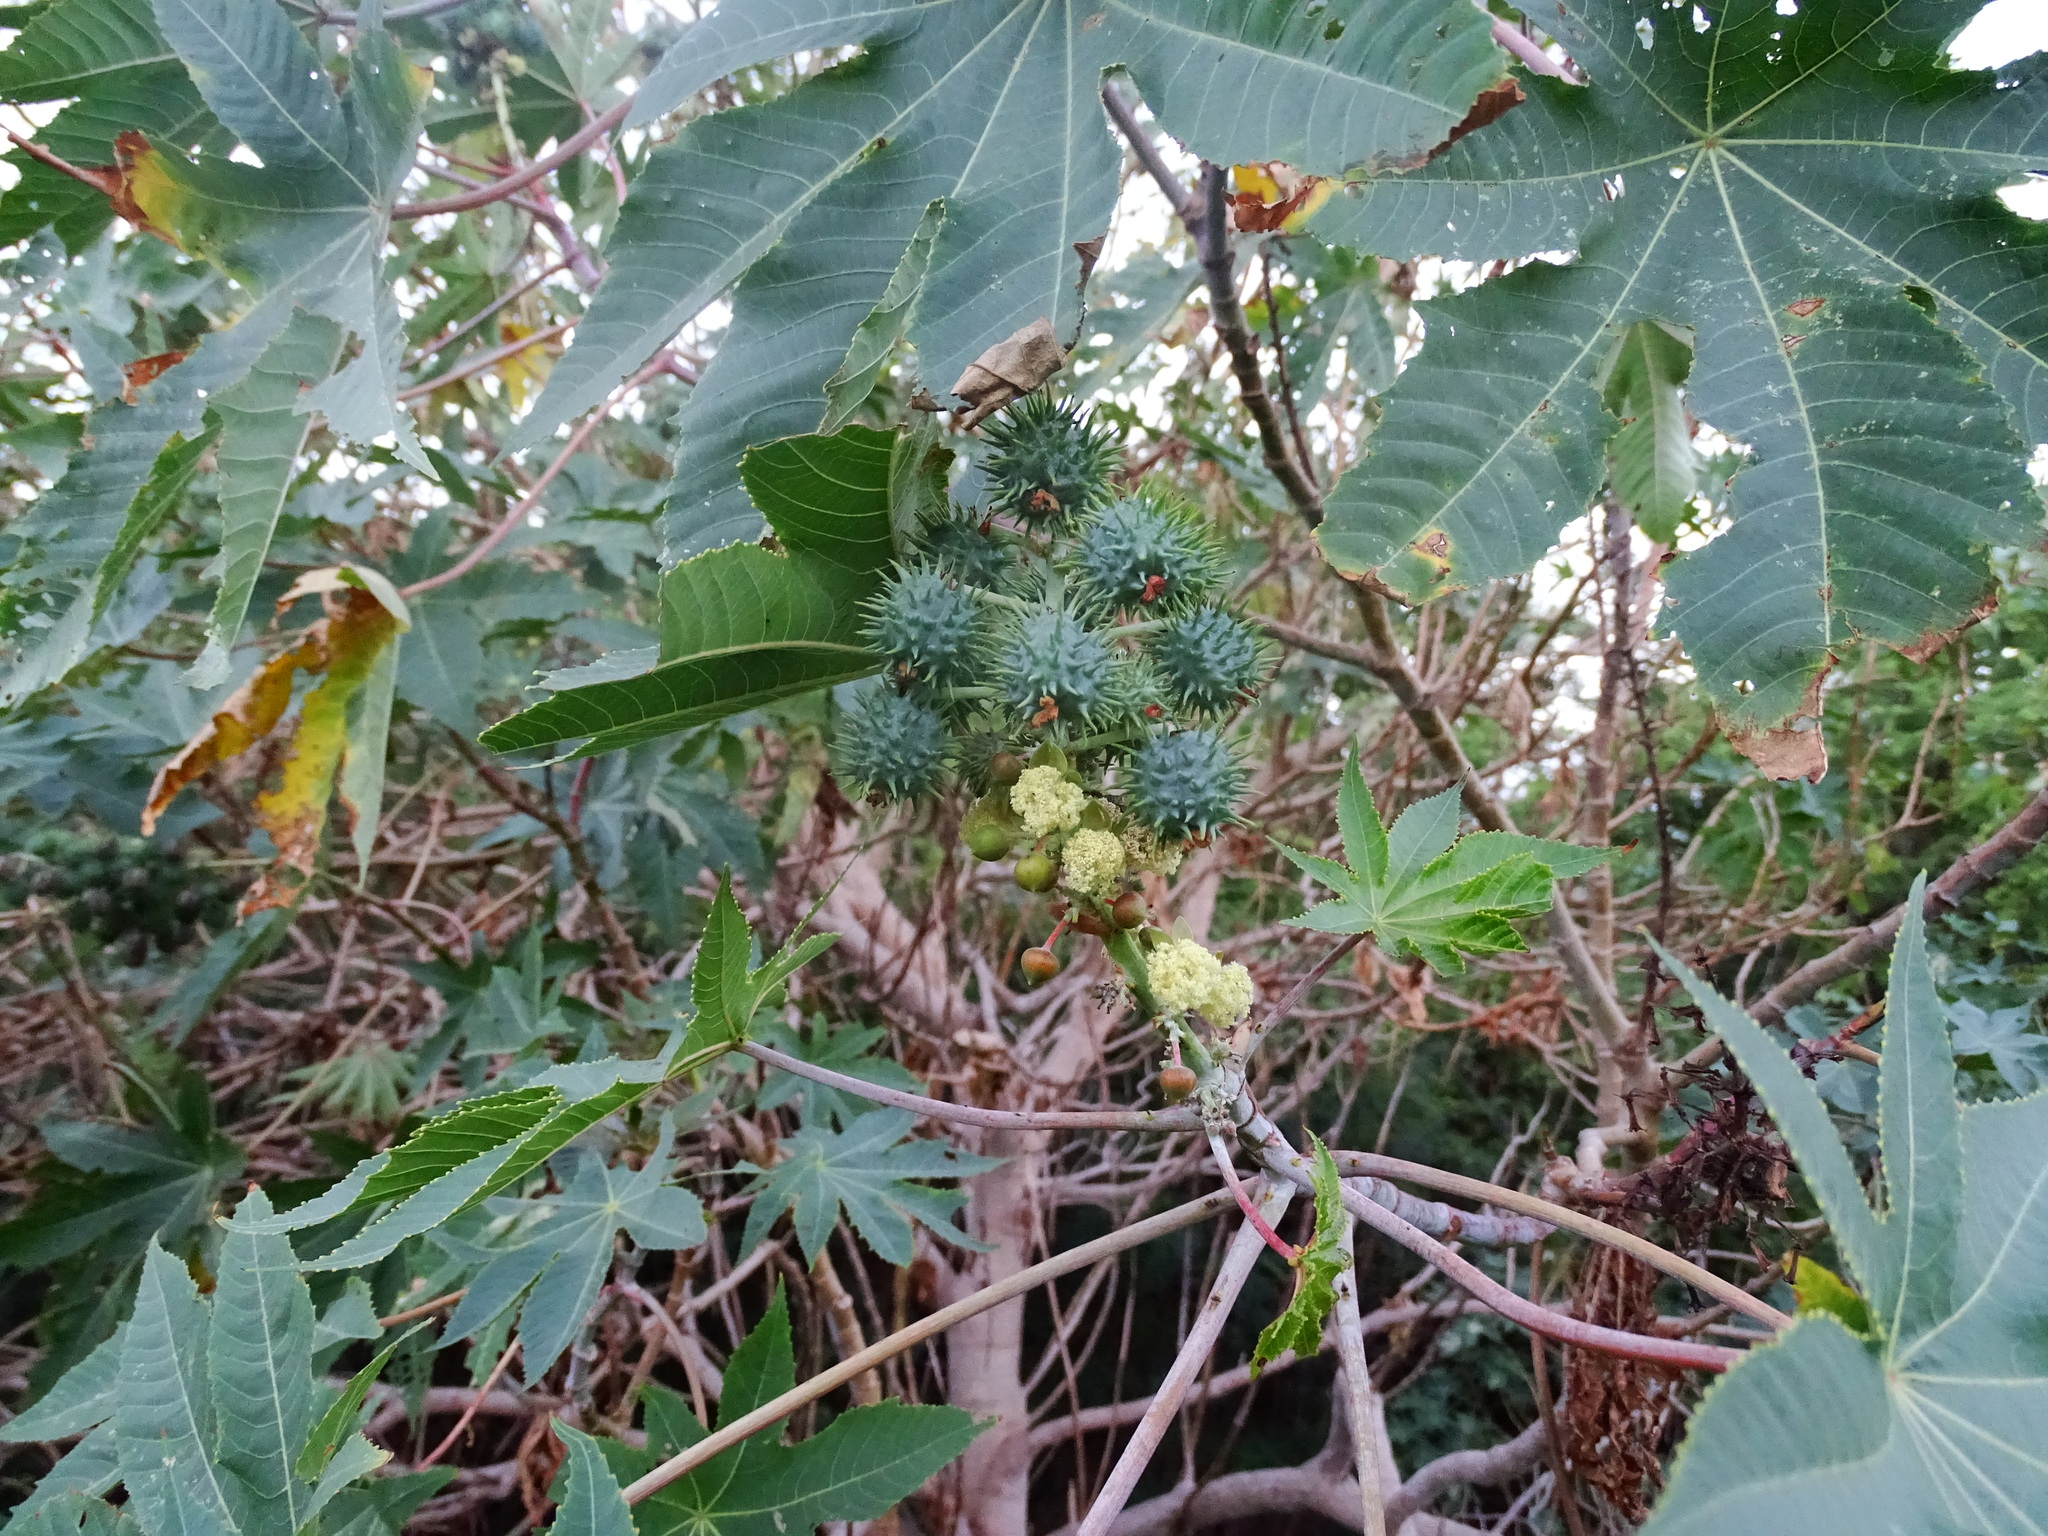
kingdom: Plantae
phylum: Tracheophyta
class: Magnoliopsida
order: Malpighiales
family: Euphorbiaceae
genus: Ricinus
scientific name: Ricinus communis
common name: Castor-oil-plant
